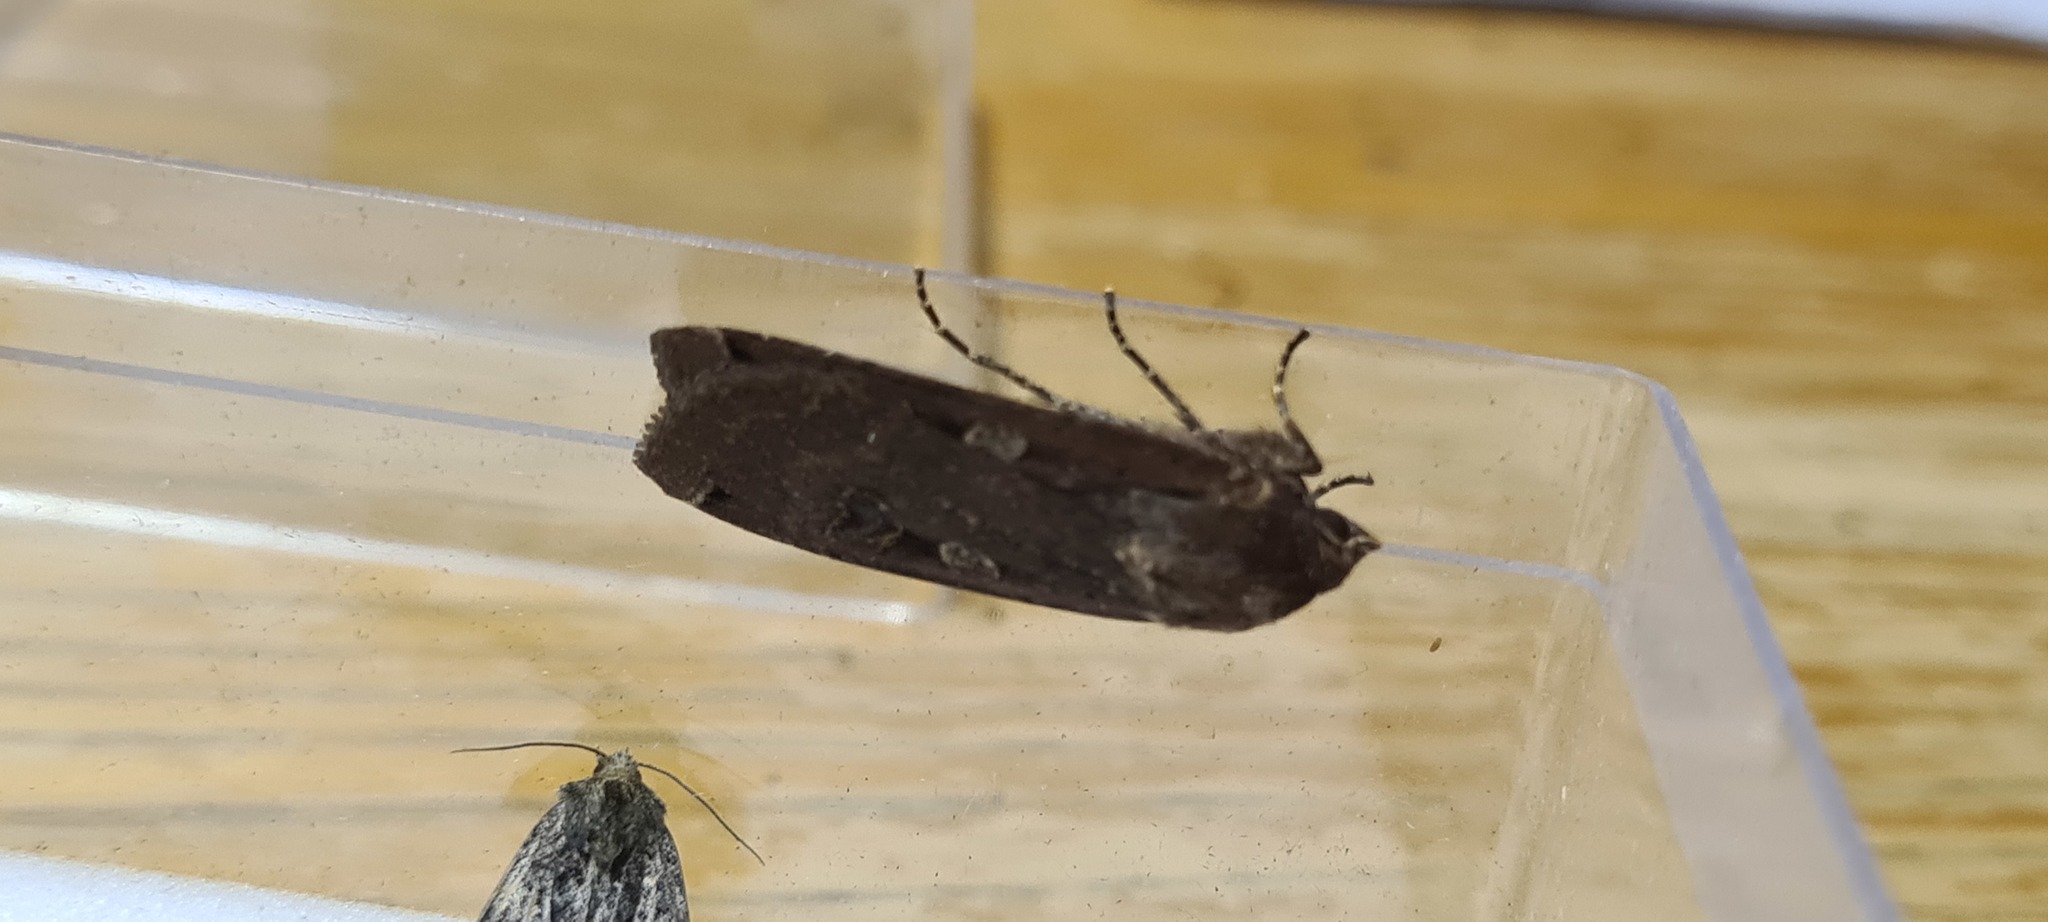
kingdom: Animalia
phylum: Arthropoda
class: Insecta
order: Lepidoptera
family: Noctuidae
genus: Noctua
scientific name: Noctua pronuba
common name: Large yellow underwing
